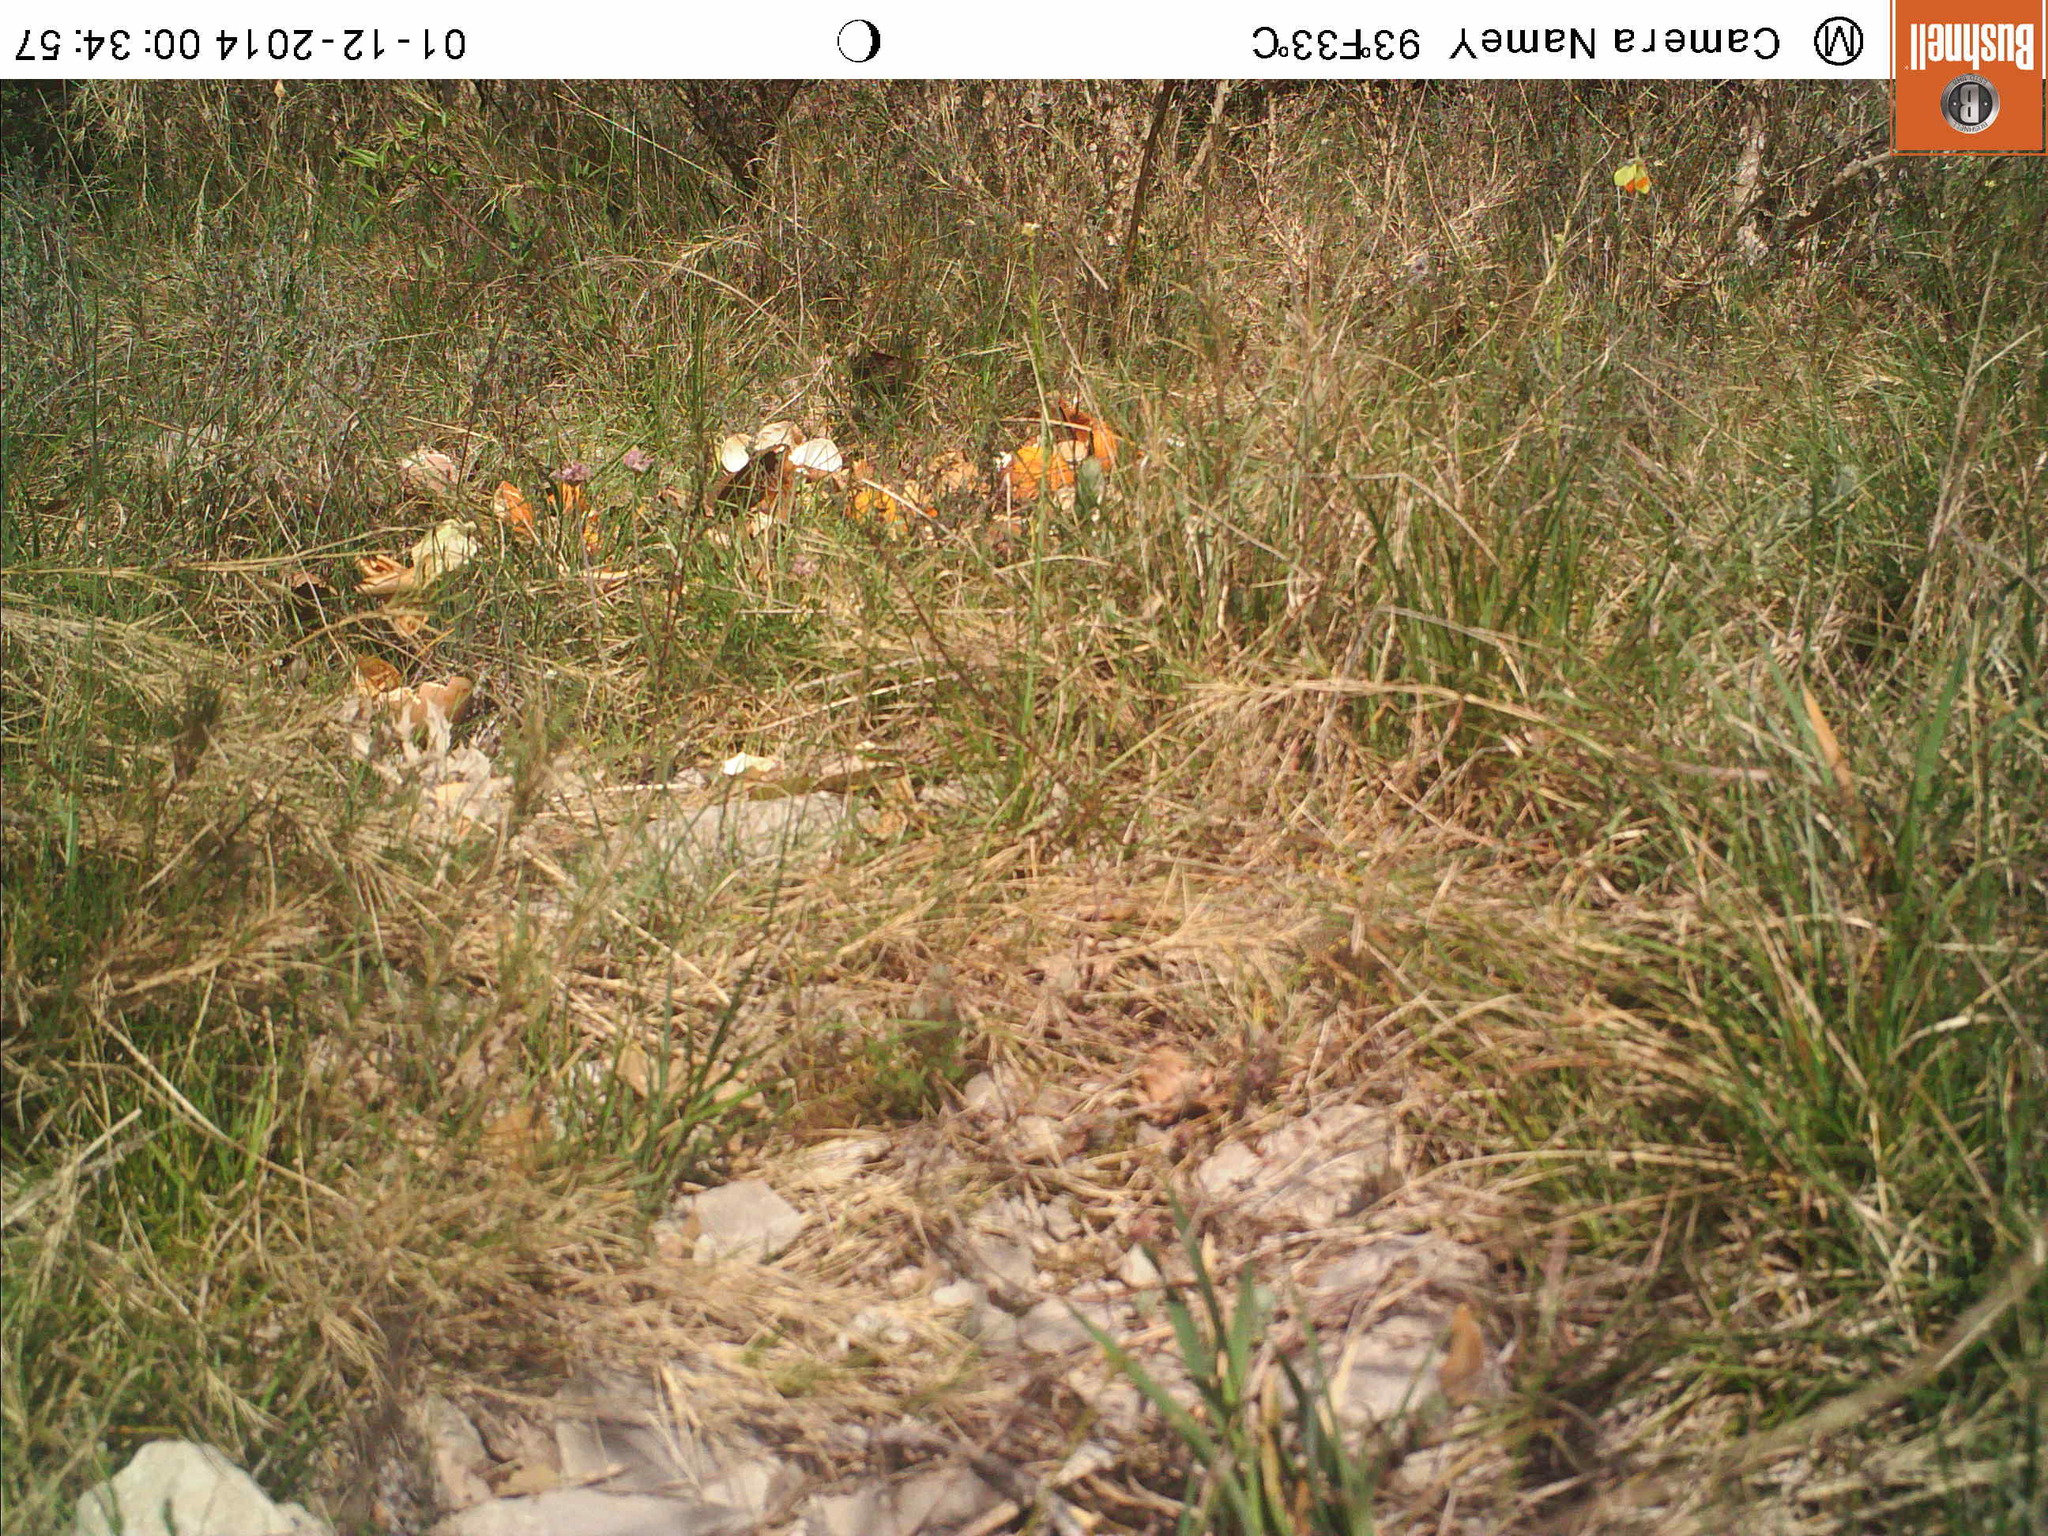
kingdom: Animalia
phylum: Arthropoda
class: Insecta
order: Lepidoptera
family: Pieridae
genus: Anthocharis
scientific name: Anthocharis euphenoides
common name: Provence orange-tip
